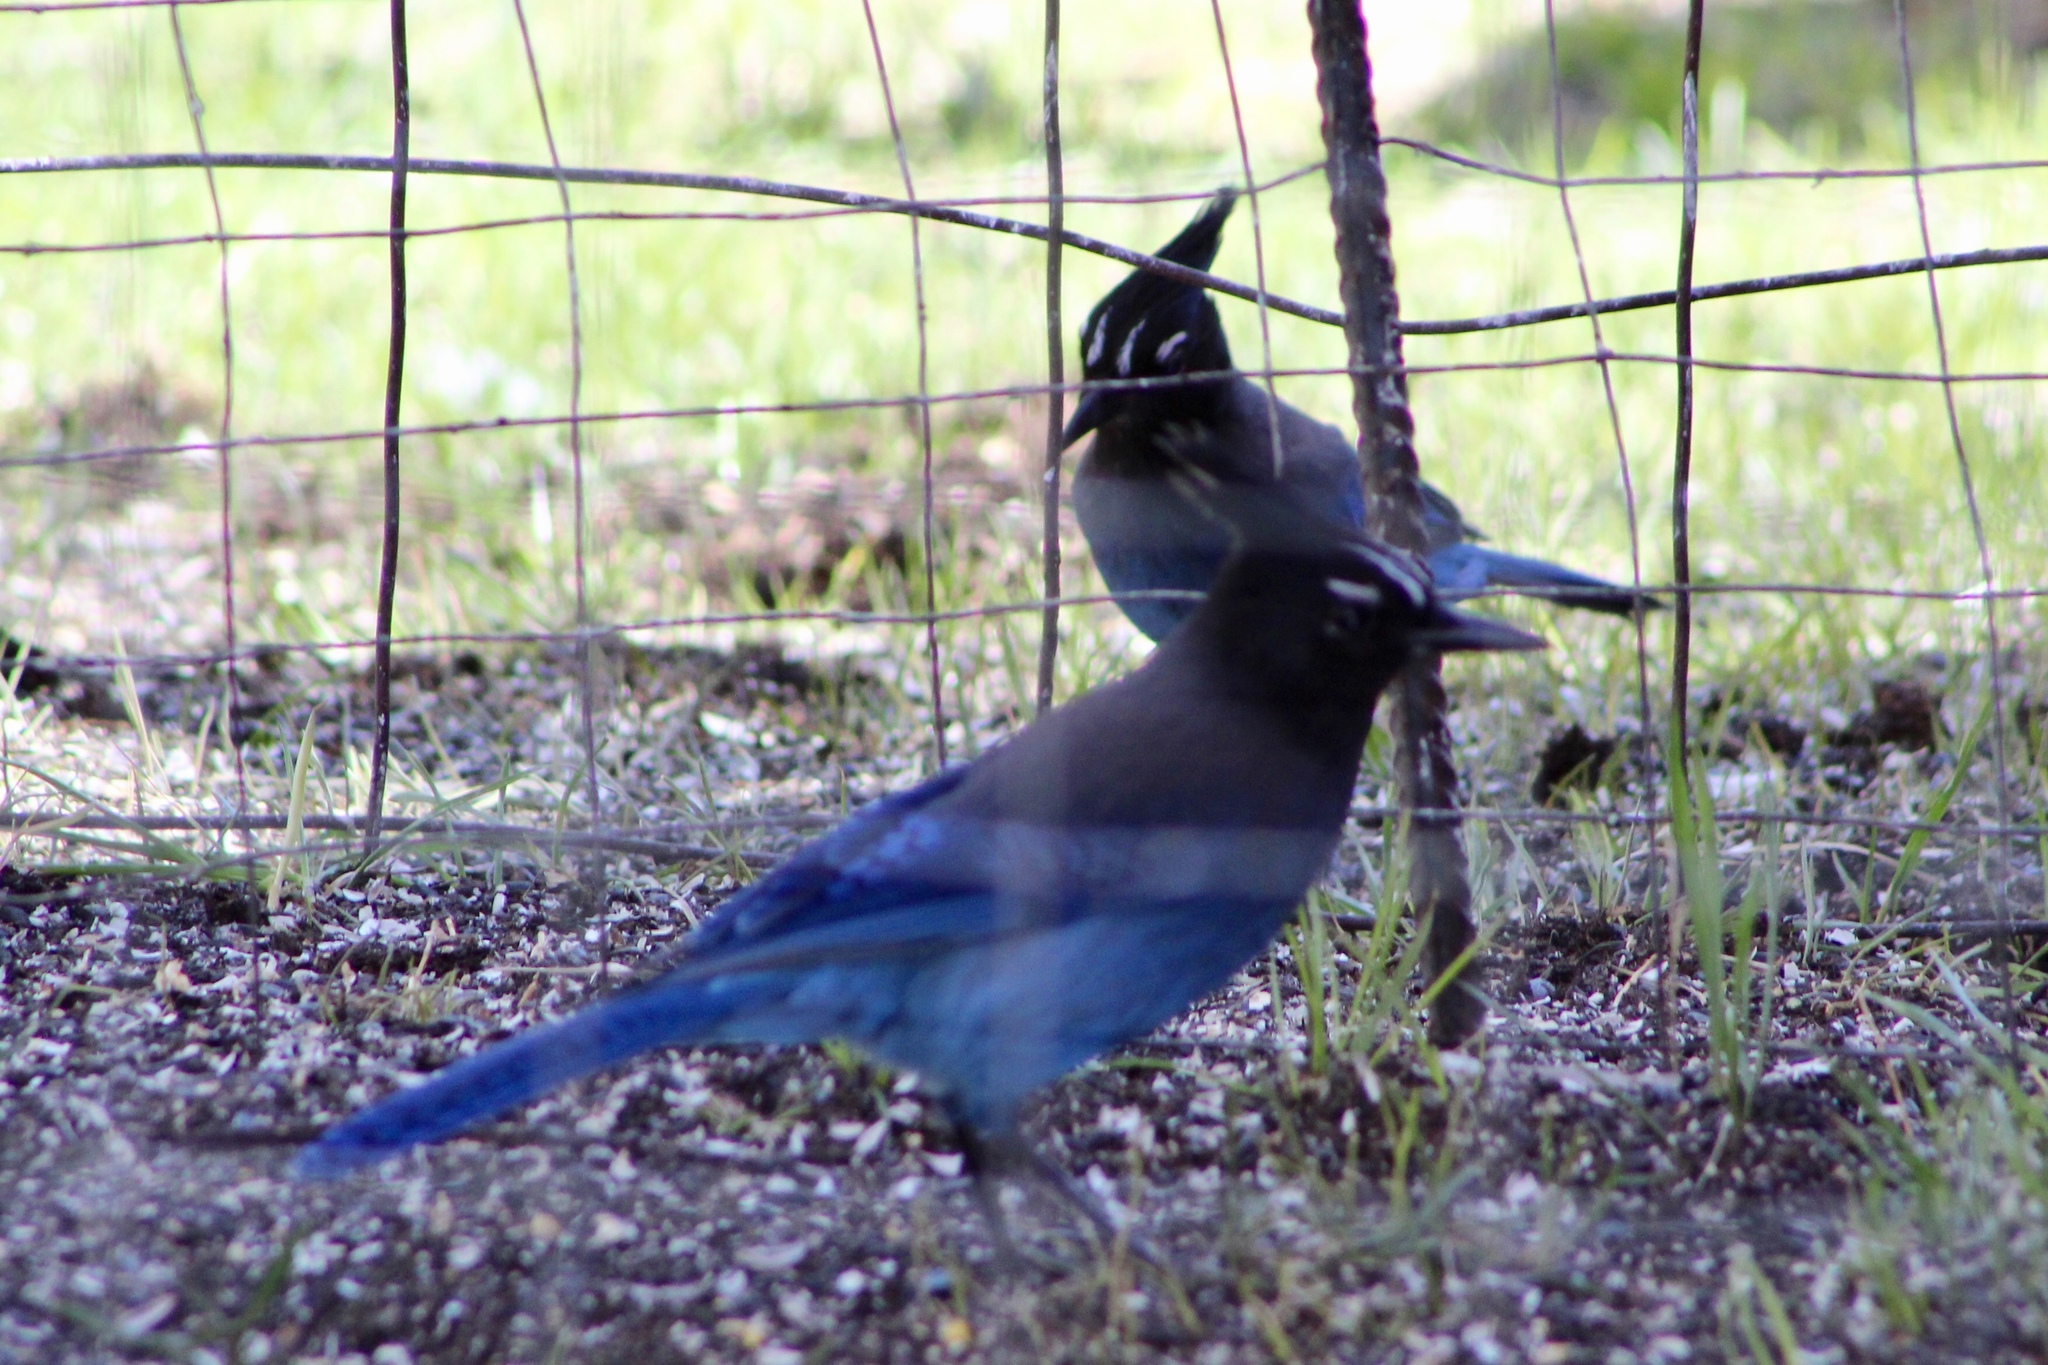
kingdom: Animalia
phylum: Chordata
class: Aves
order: Passeriformes
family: Corvidae
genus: Cyanocitta
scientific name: Cyanocitta stelleri
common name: Steller's jay
